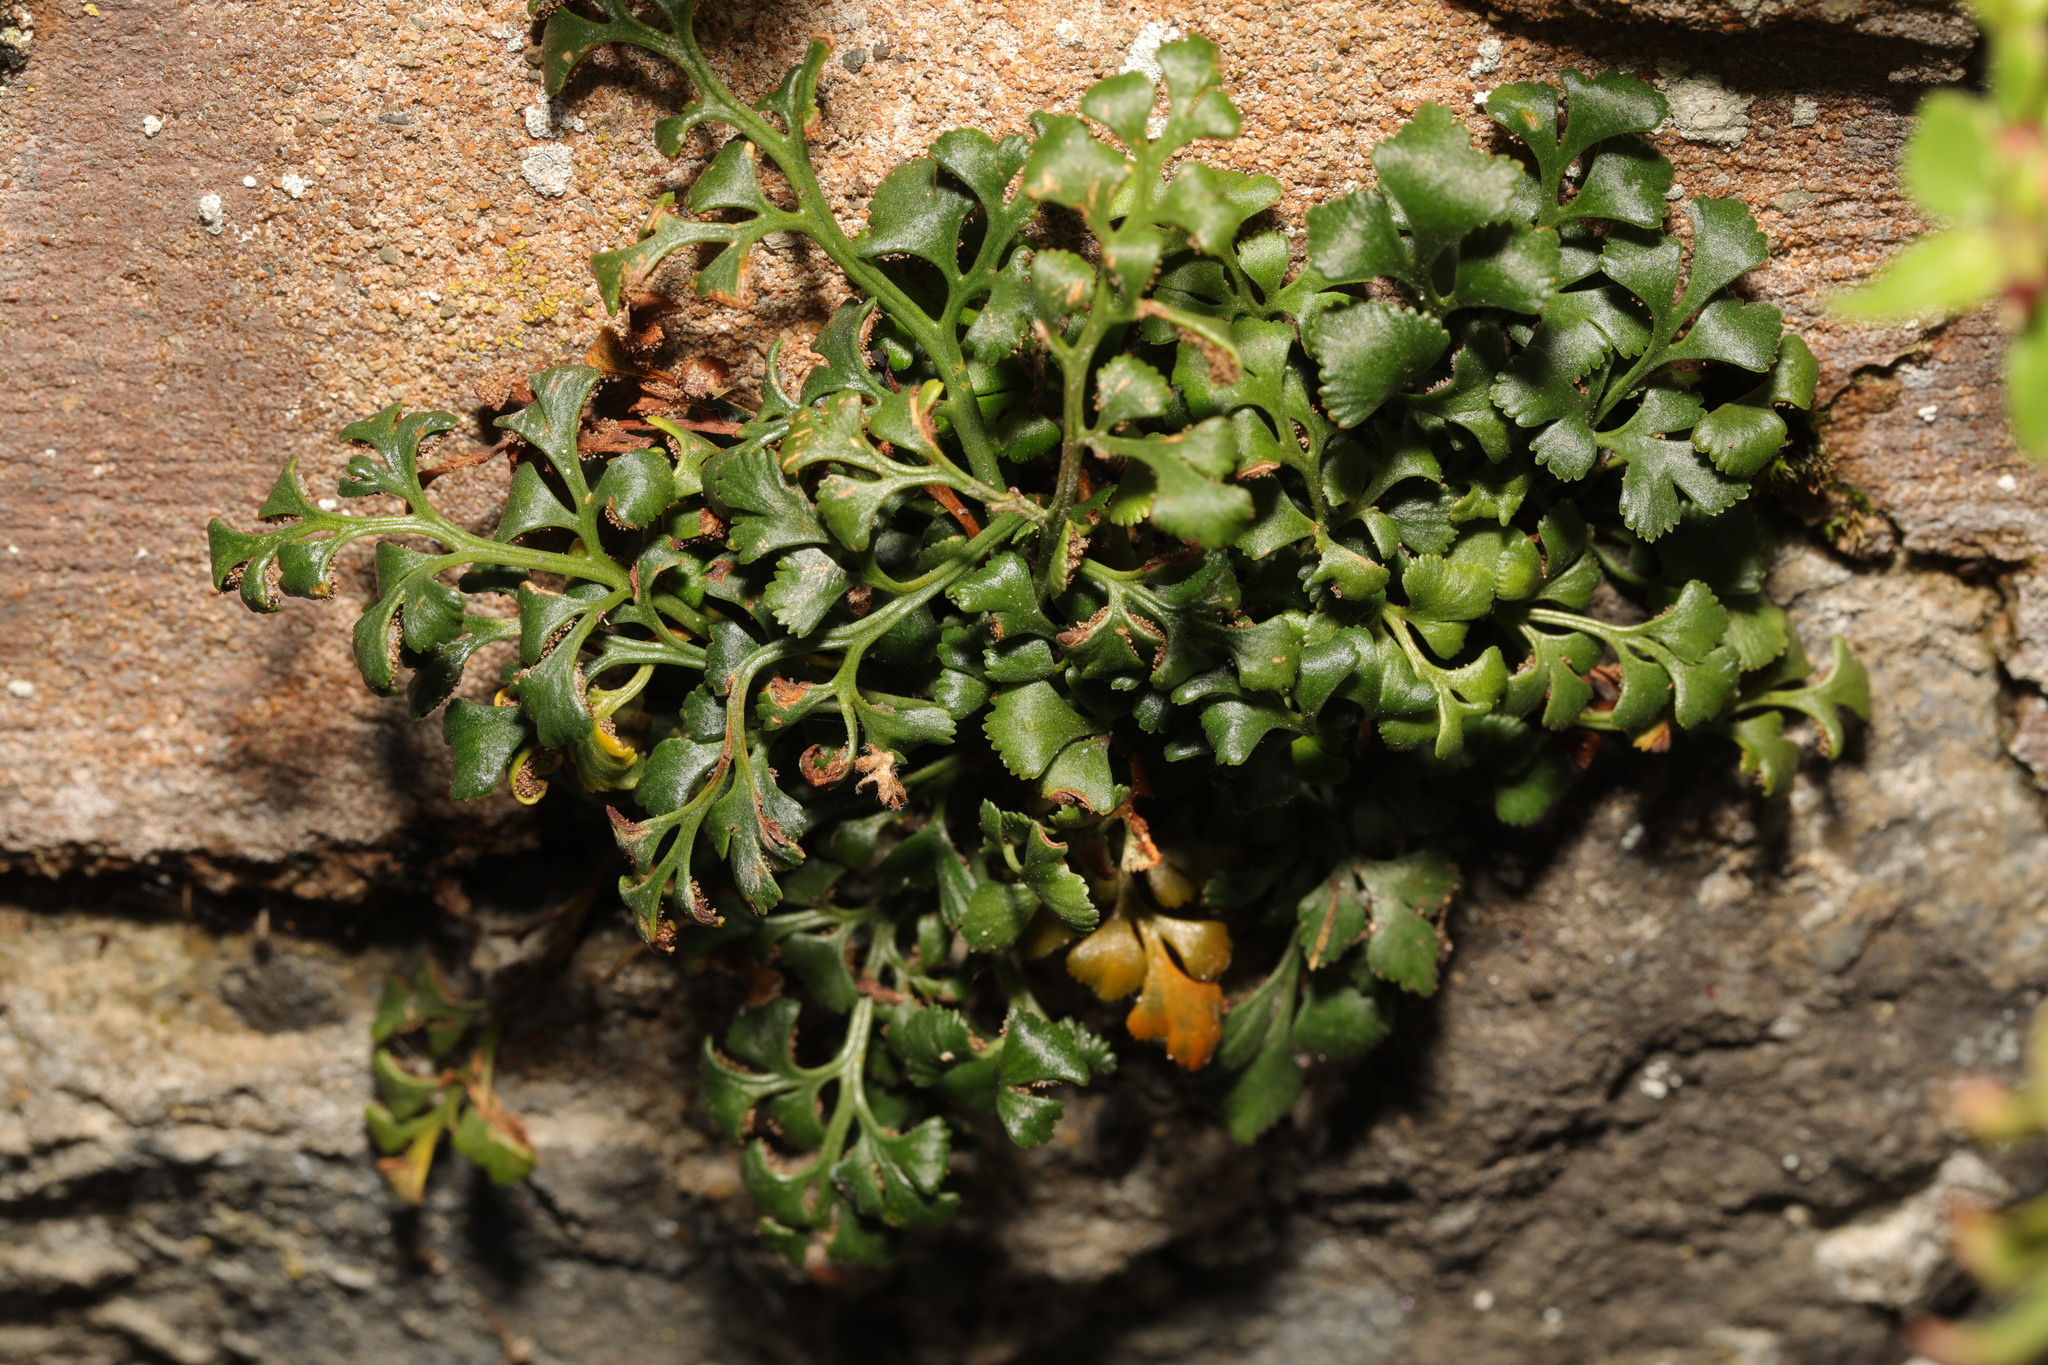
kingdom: Plantae
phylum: Tracheophyta
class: Polypodiopsida
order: Polypodiales
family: Aspleniaceae
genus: Asplenium
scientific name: Asplenium ruta-muraria
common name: Wall-rue
